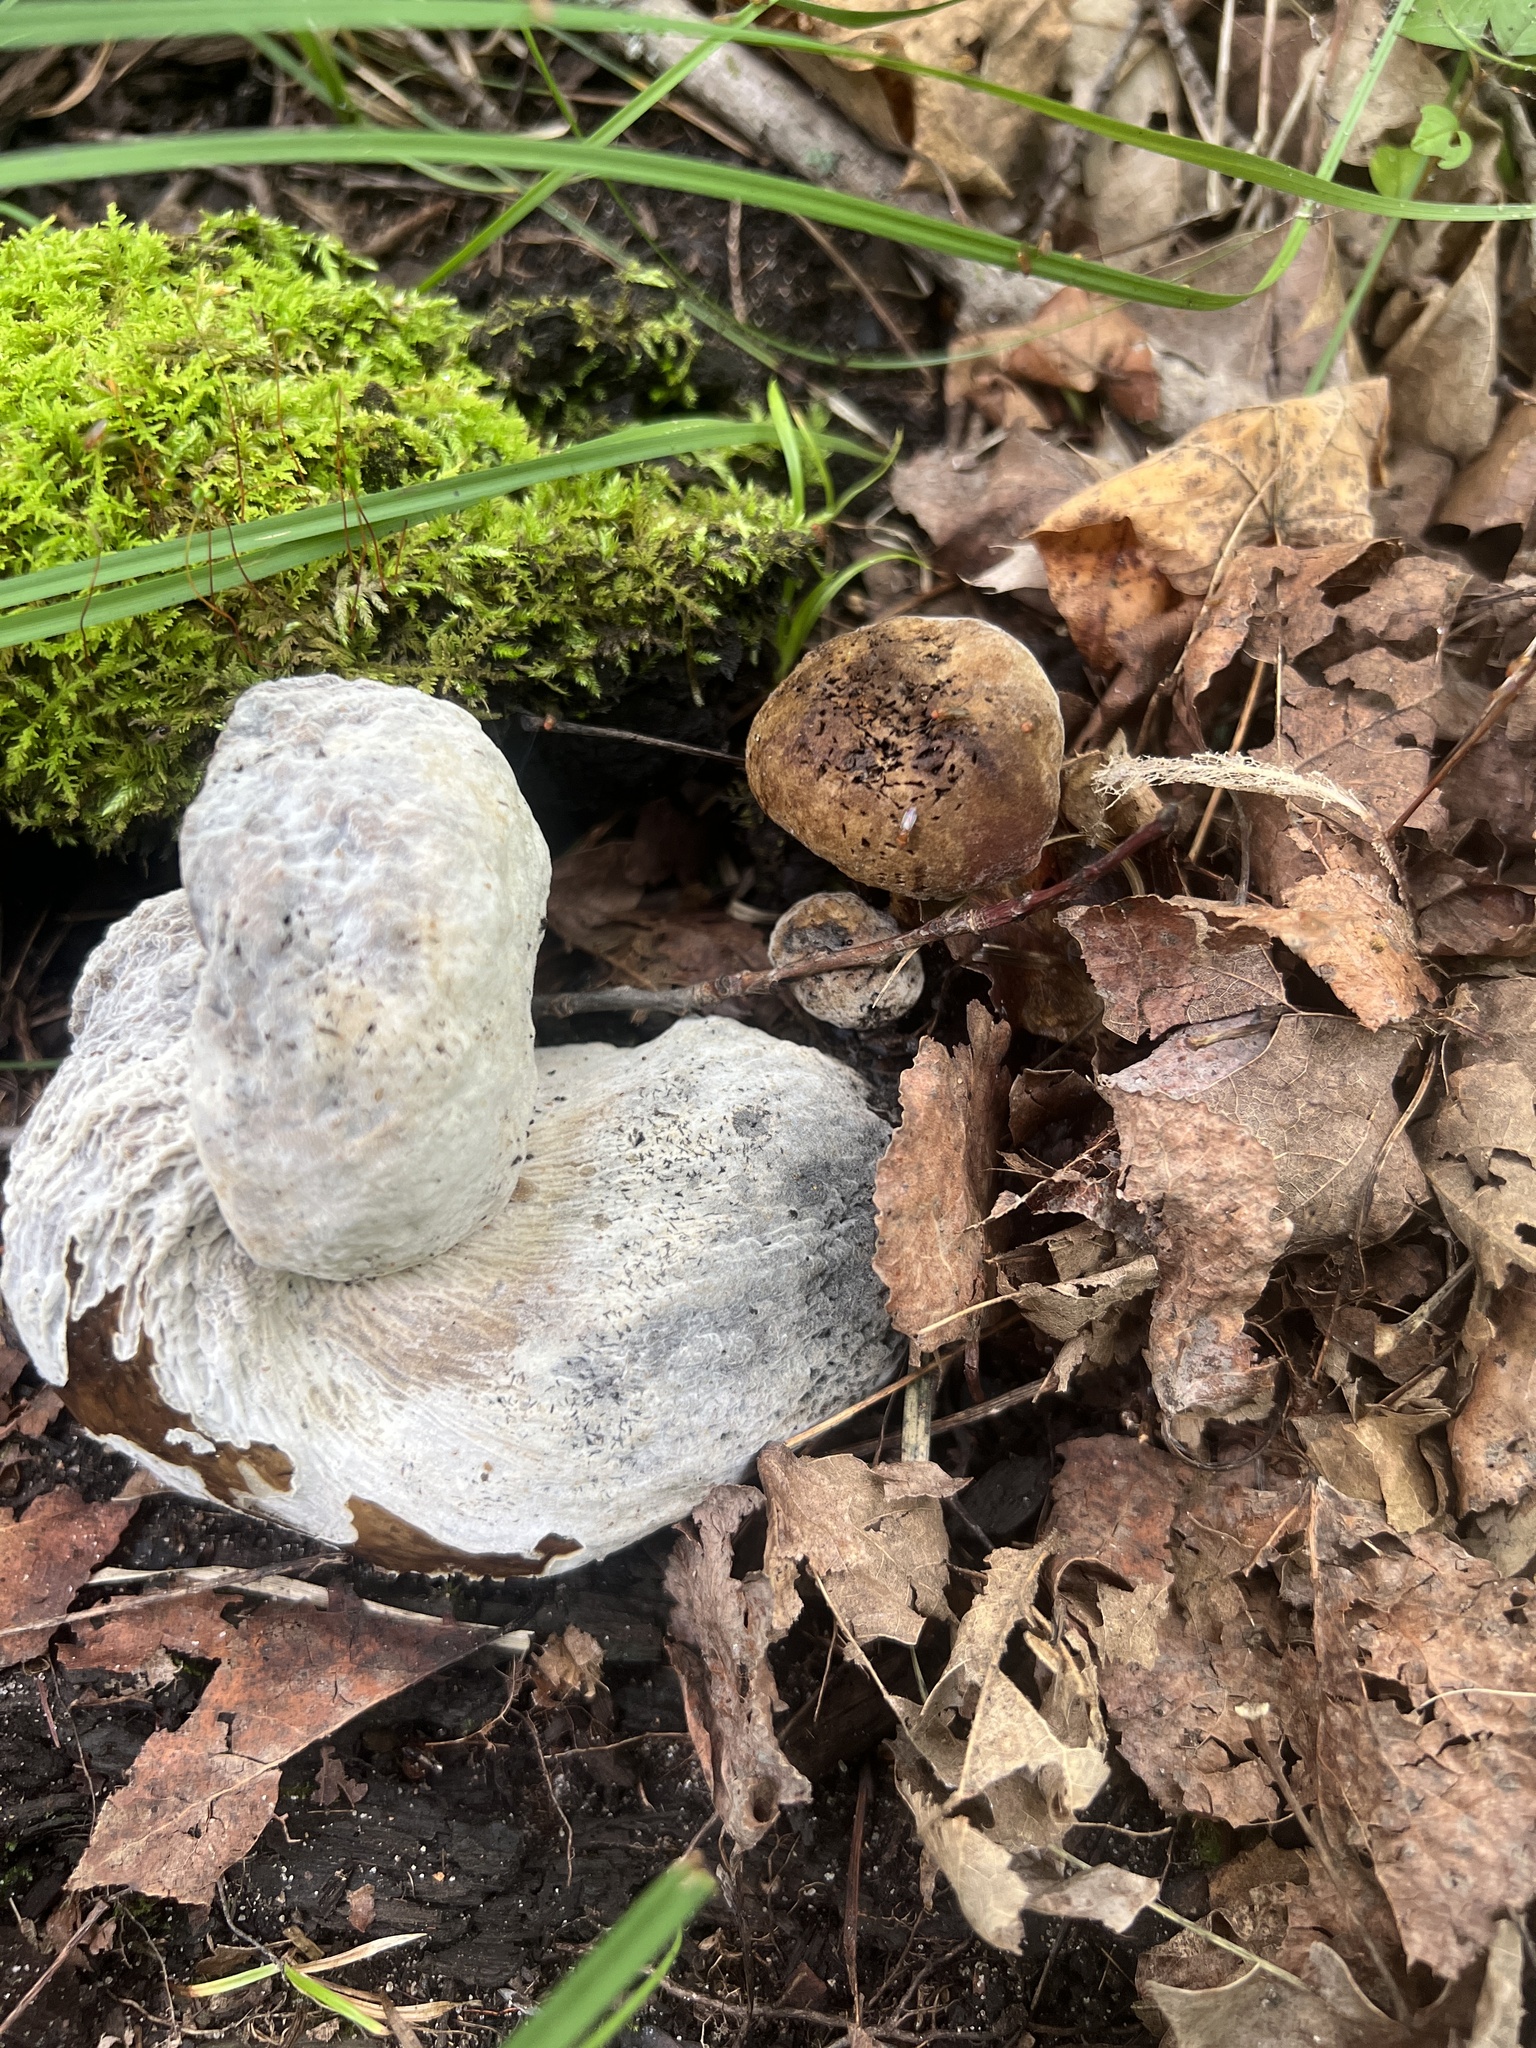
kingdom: Fungi
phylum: Ascomycota
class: Sordariomycetes
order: Hypocreales
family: Hypocreaceae
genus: Hypomyces
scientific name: Hypomyces chrysospermus
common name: Bolete mould
